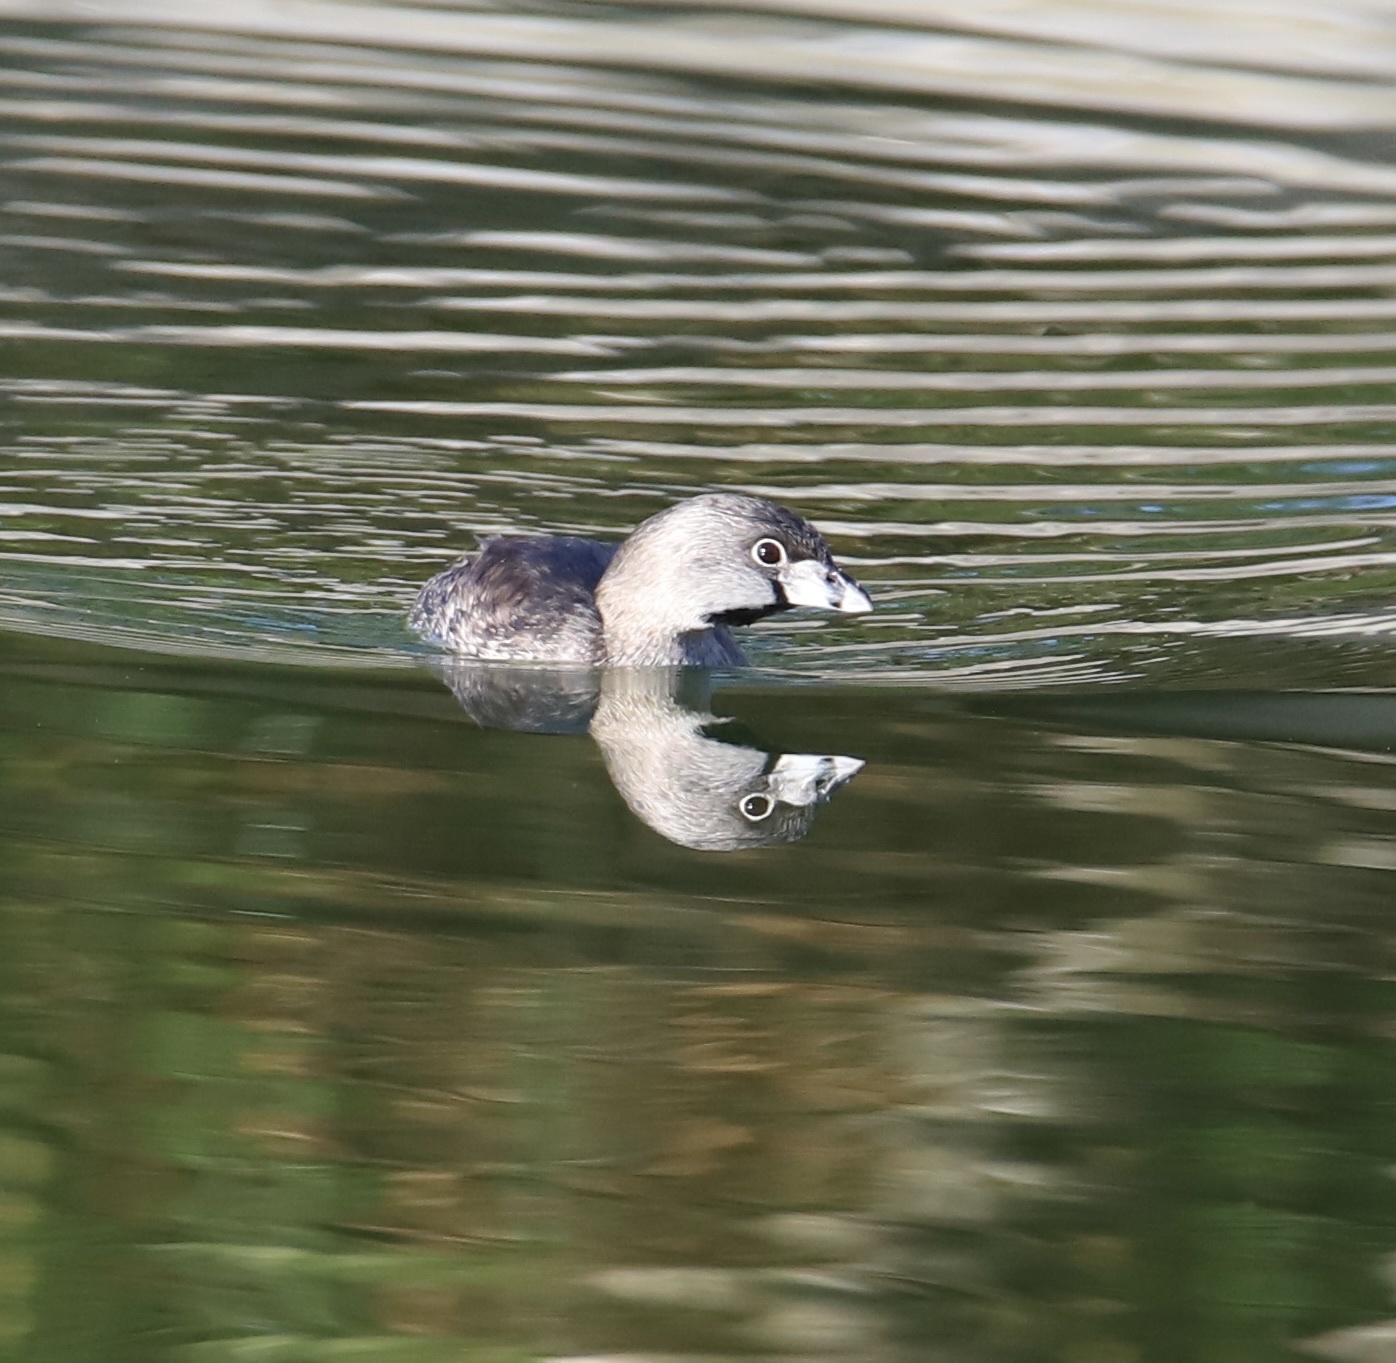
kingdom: Animalia
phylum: Chordata
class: Aves
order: Podicipediformes
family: Podicipedidae
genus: Podilymbus
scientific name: Podilymbus podiceps
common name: Pied-billed grebe
